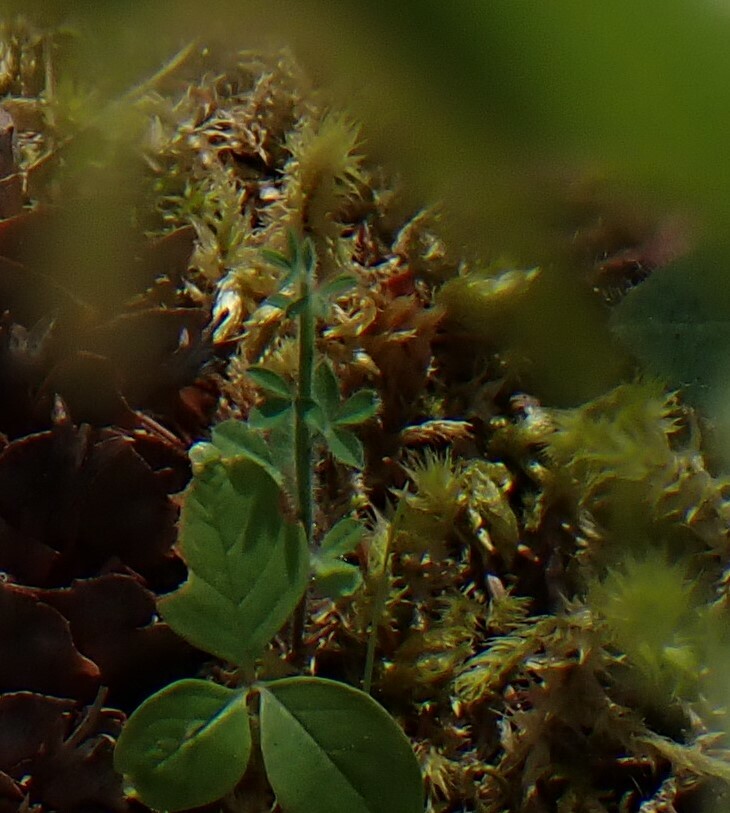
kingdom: Plantae
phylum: Tracheophyta
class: Magnoliopsida
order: Fabales
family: Fabaceae
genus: Cytisus
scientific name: Cytisus scoparius
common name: Scotch broom
